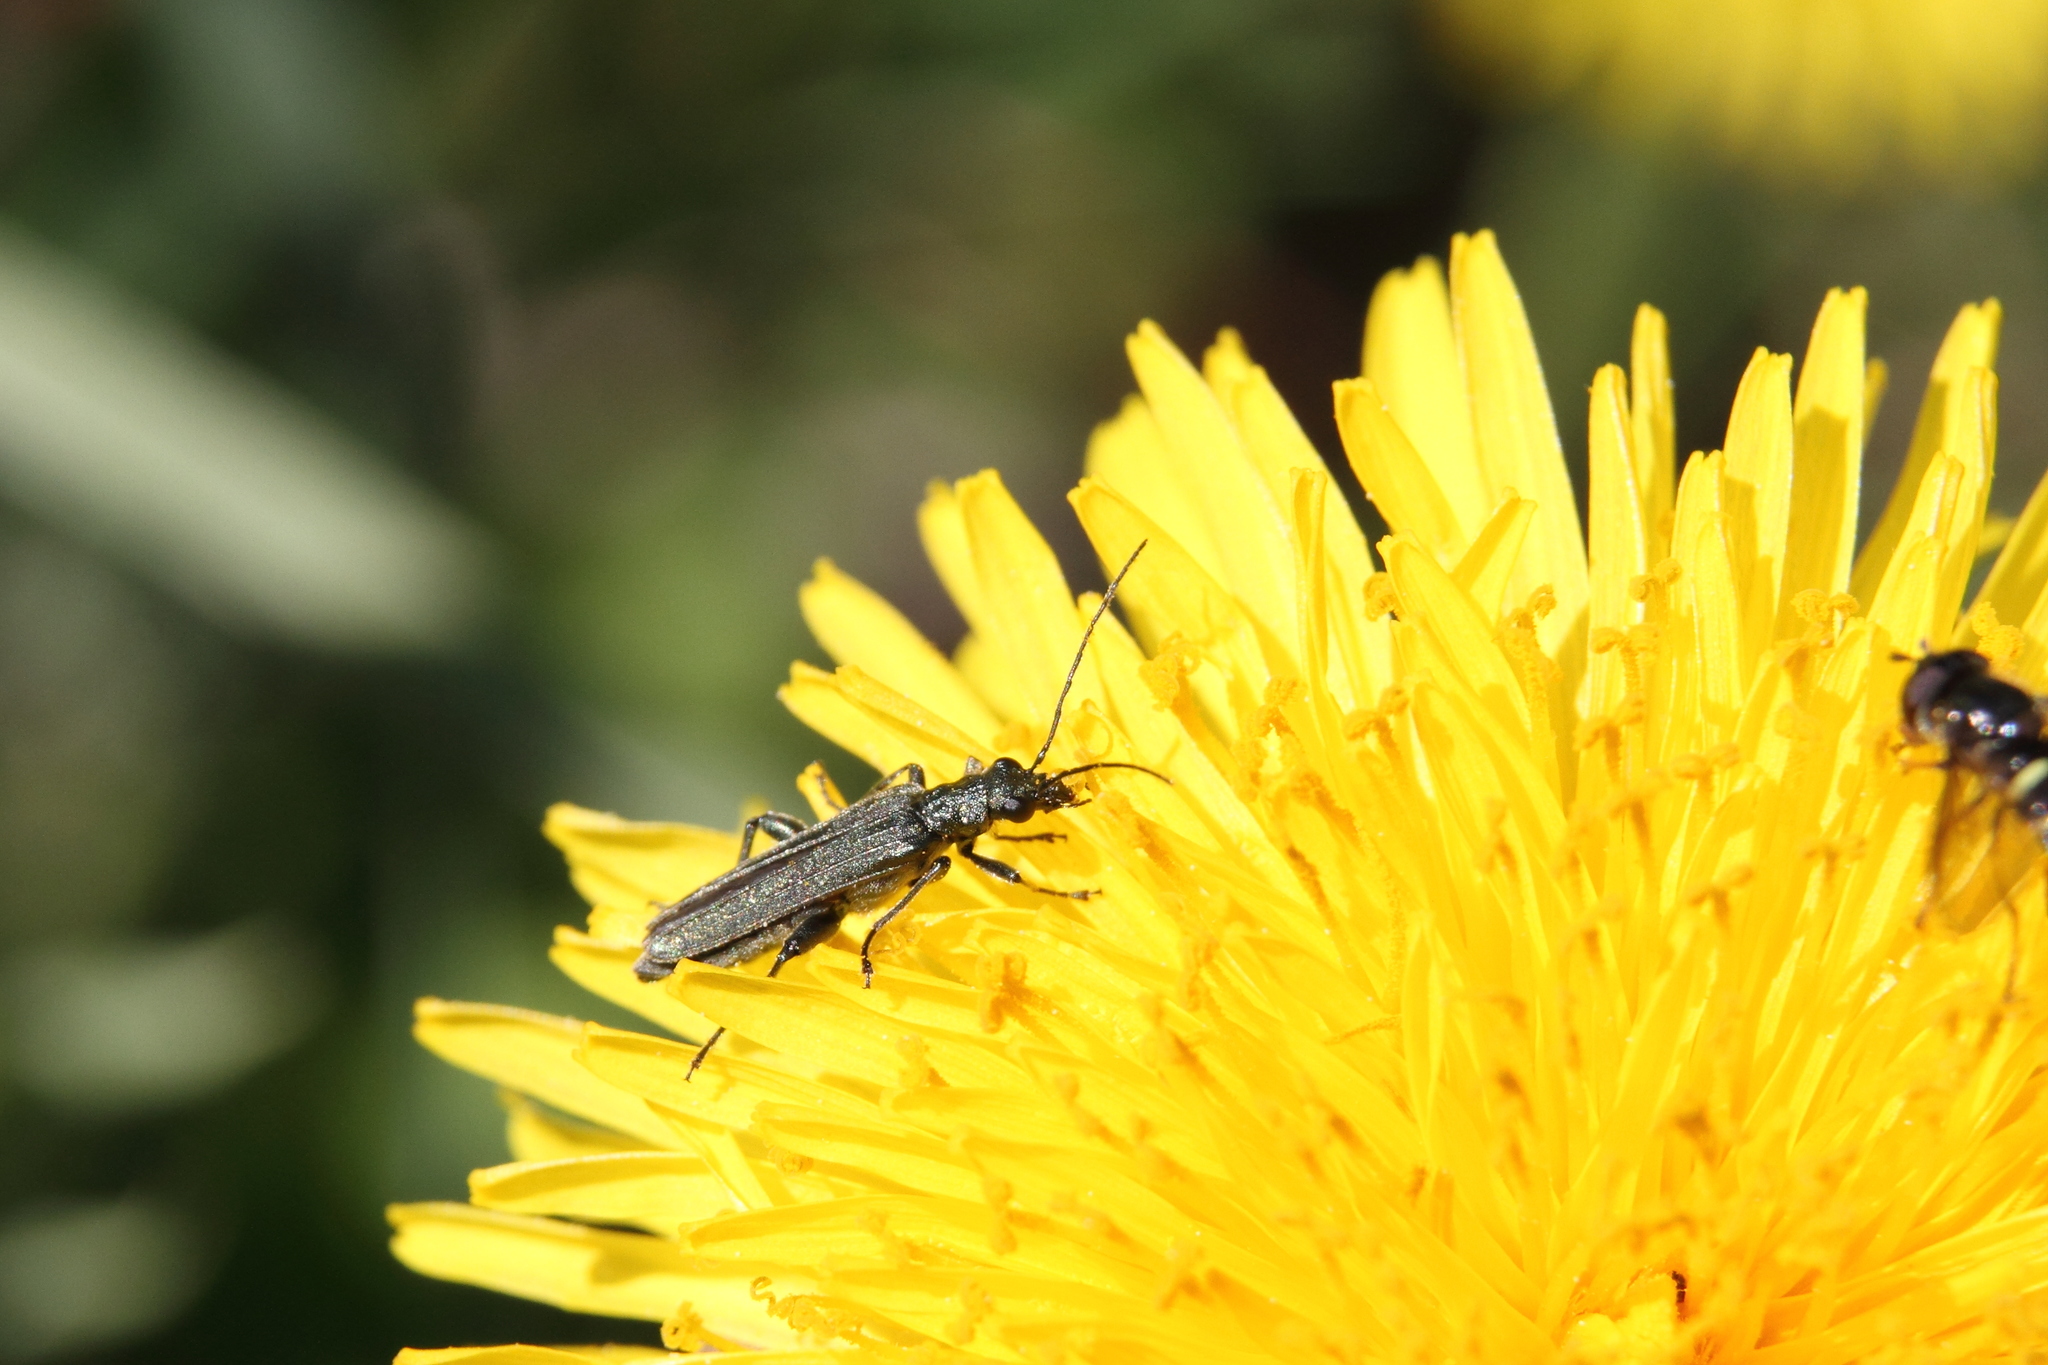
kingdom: Animalia
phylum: Arthropoda
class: Insecta
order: Coleoptera
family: Oedemeridae
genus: Oedemera
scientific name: Oedemera virescens
